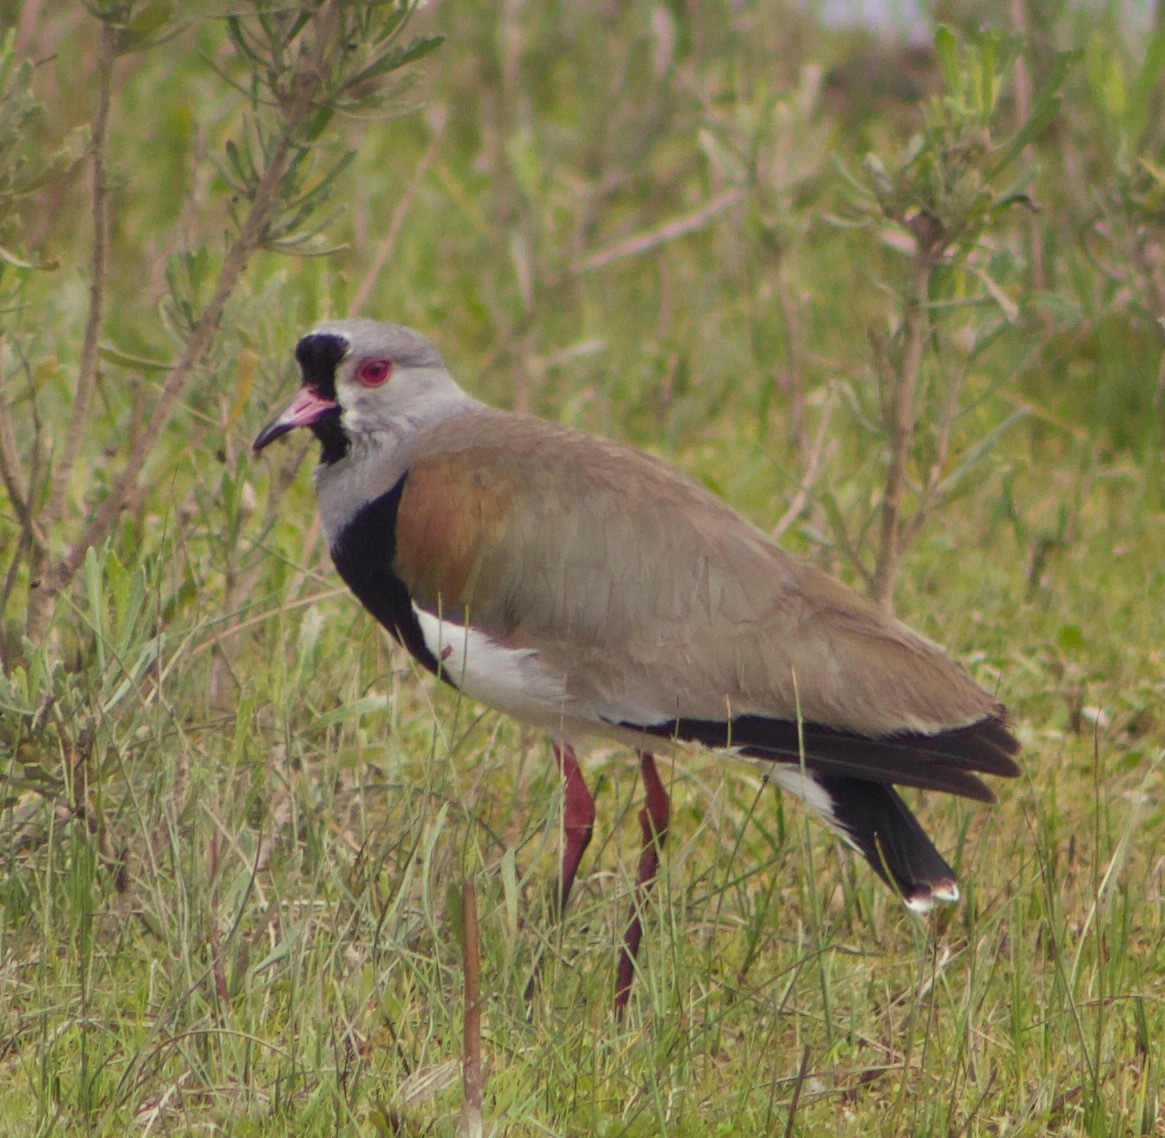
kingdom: Animalia
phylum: Chordata
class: Aves
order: Charadriiformes
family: Charadriidae
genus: Vanellus
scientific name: Vanellus chilensis
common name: Southern lapwing
